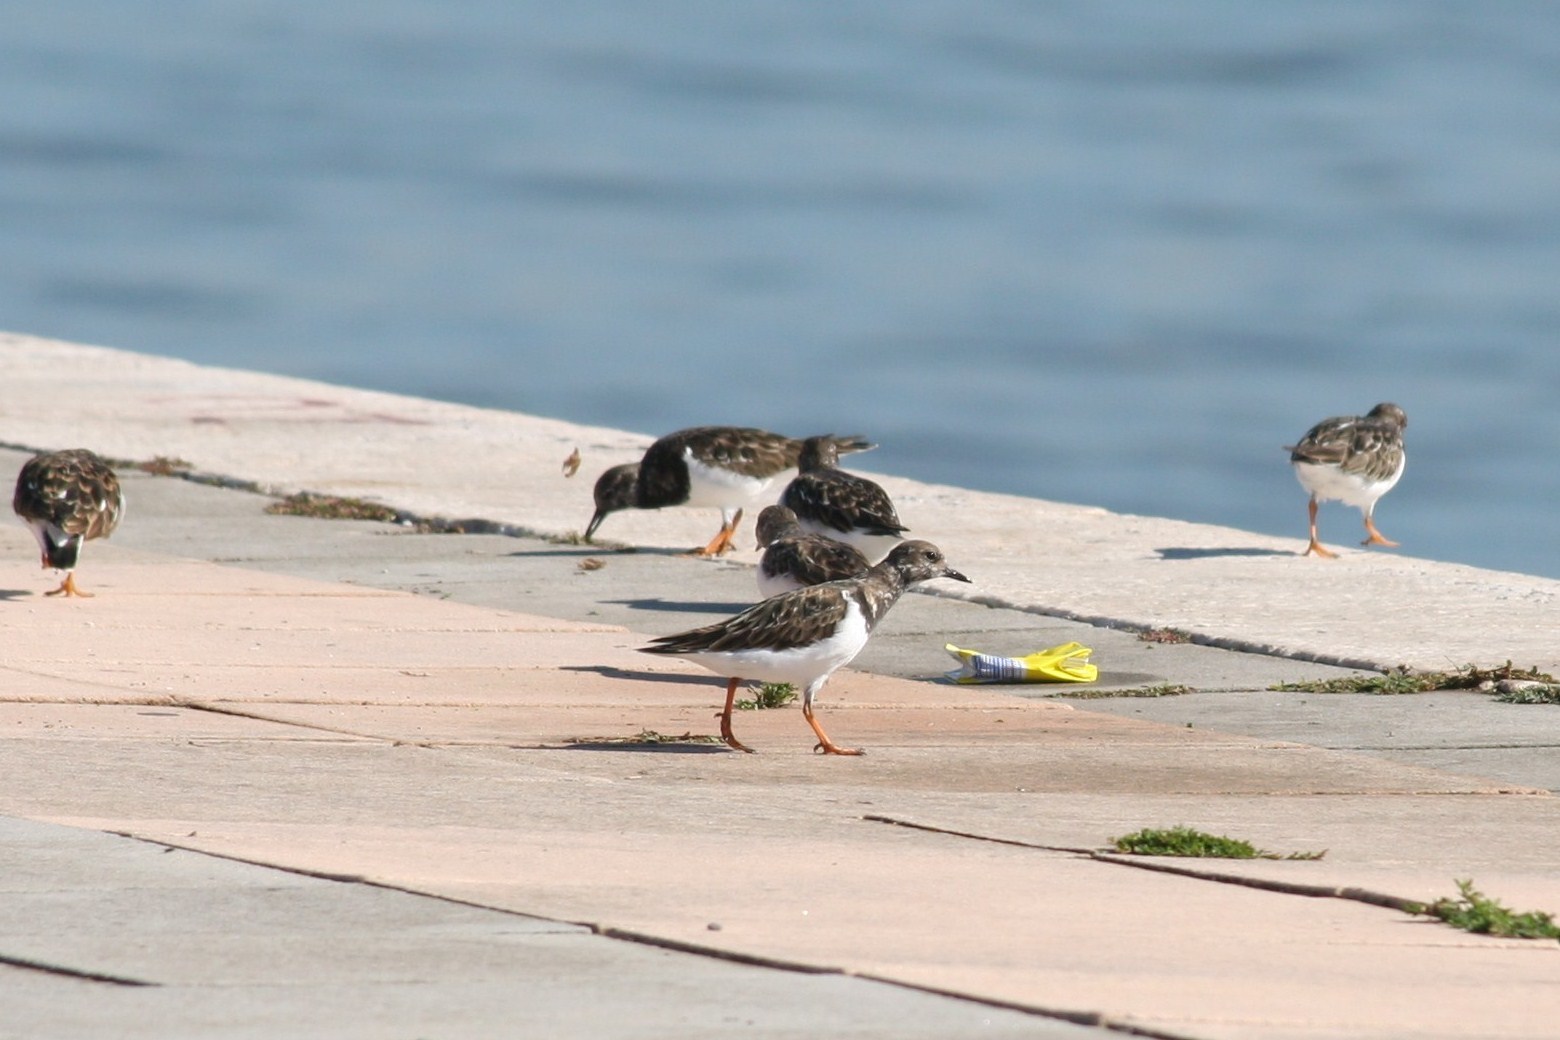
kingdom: Animalia
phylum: Chordata
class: Aves
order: Charadriiformes
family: Scolopacidae
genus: Arenaria
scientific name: Arenaria interpres
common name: Ruddy turnstone
